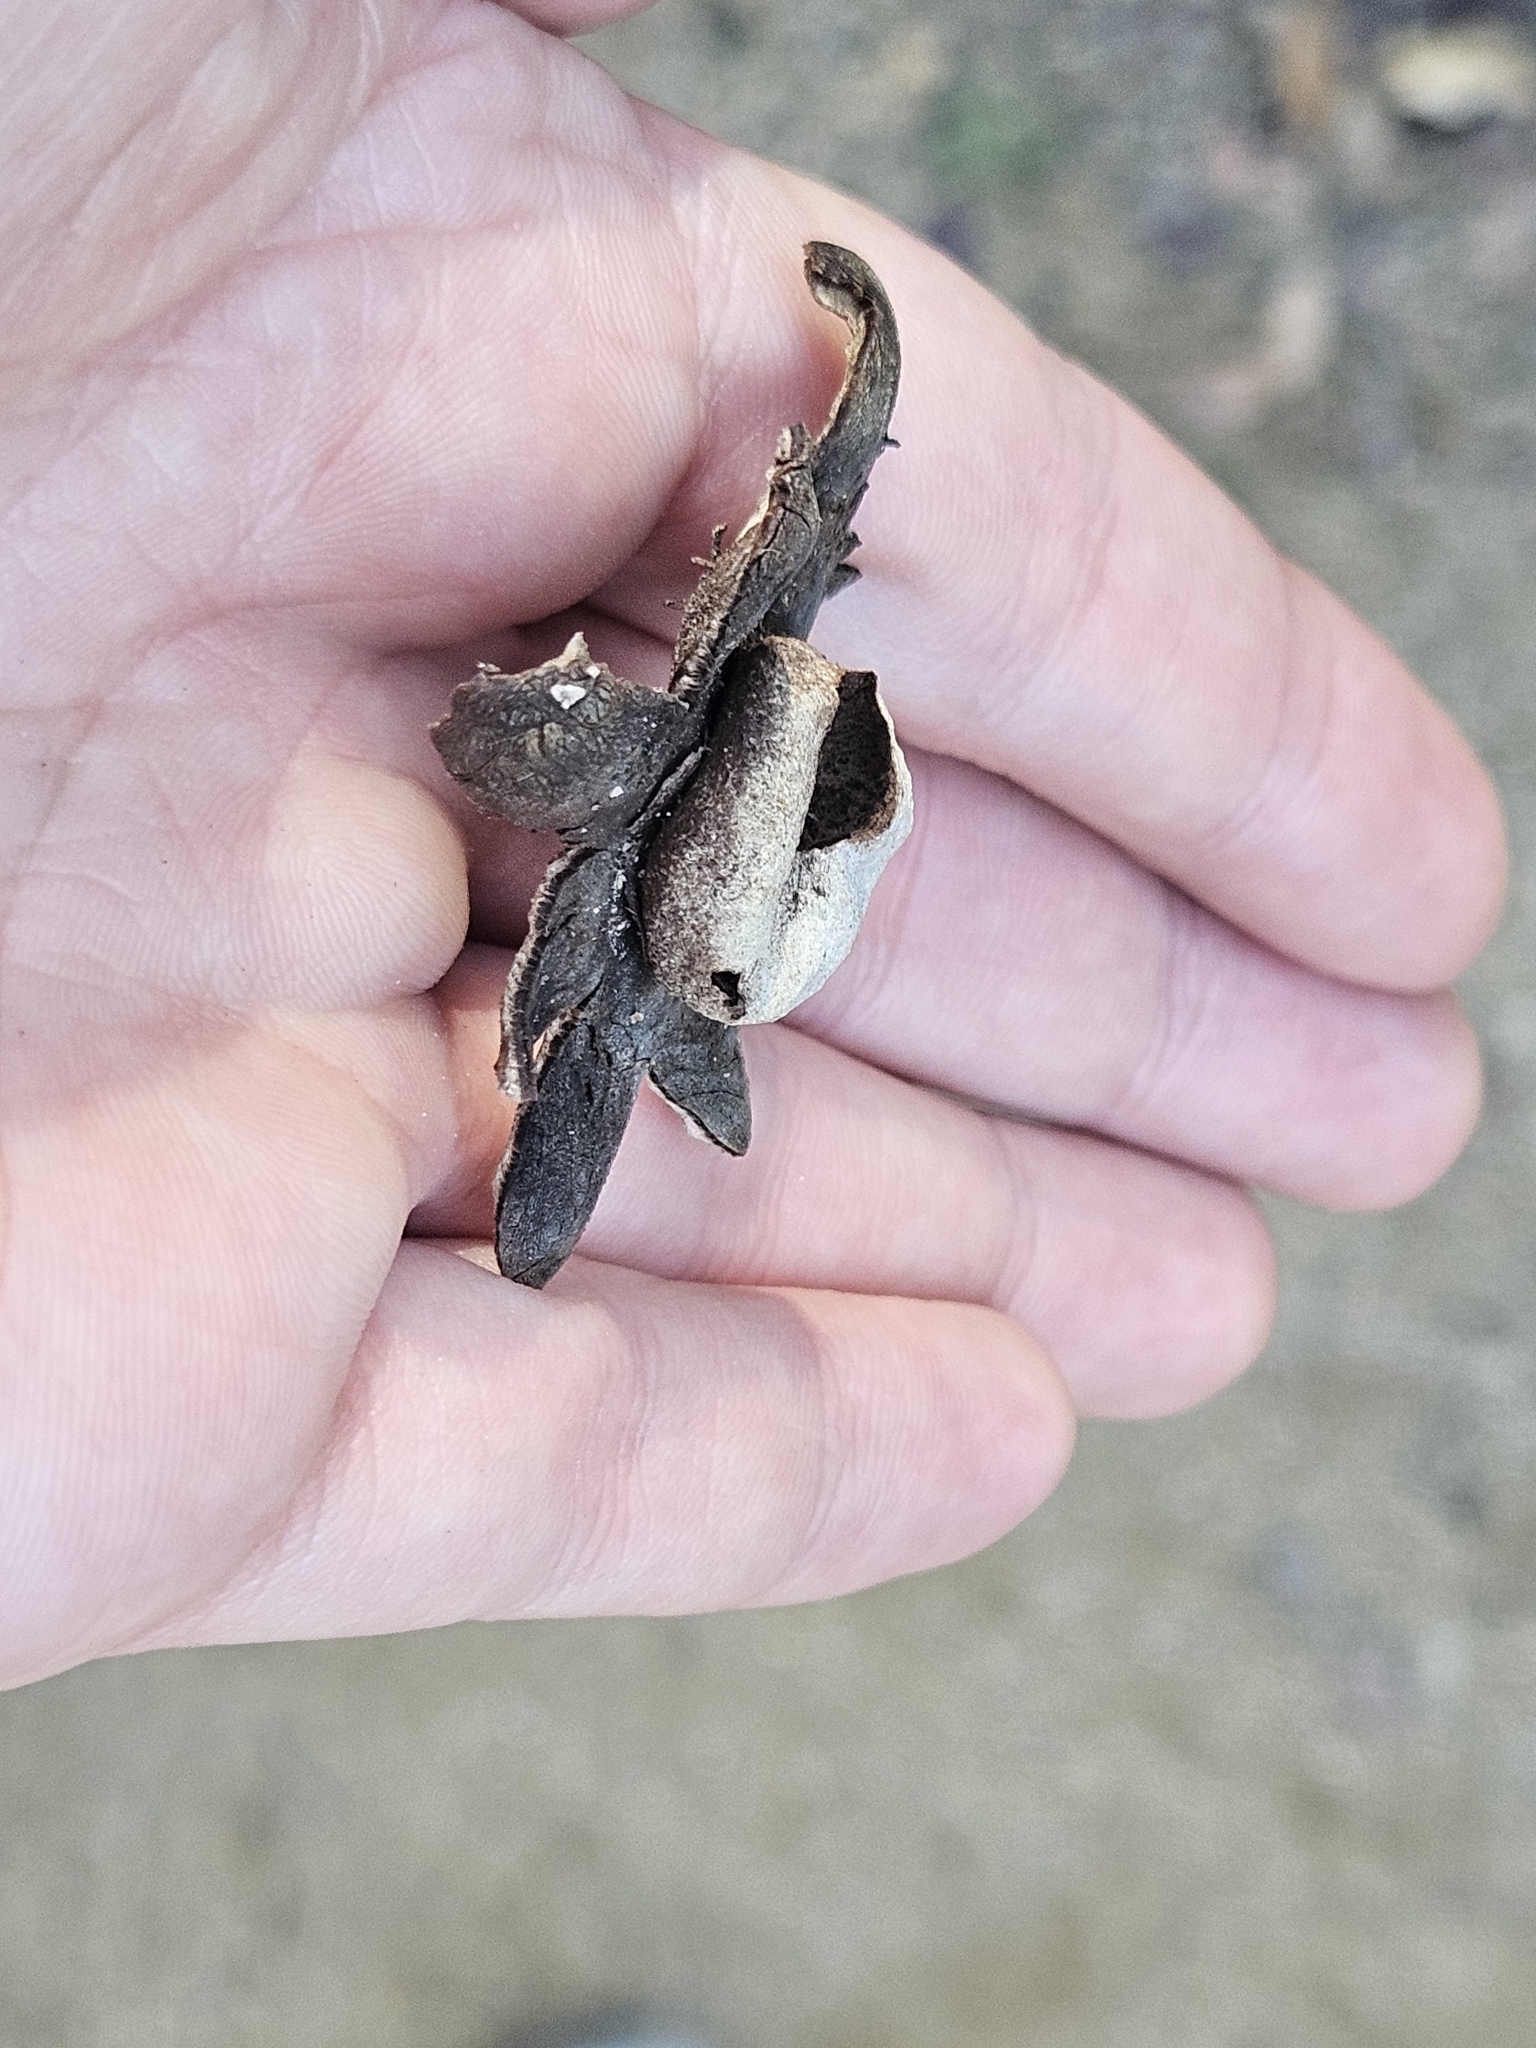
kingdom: Fungi
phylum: Basidiomycota
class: Agaricomycetes
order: Boletales
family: Diplocystidiaceae
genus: Astraeus
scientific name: Astraeus hygrometricus
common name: Barometer earthstar
